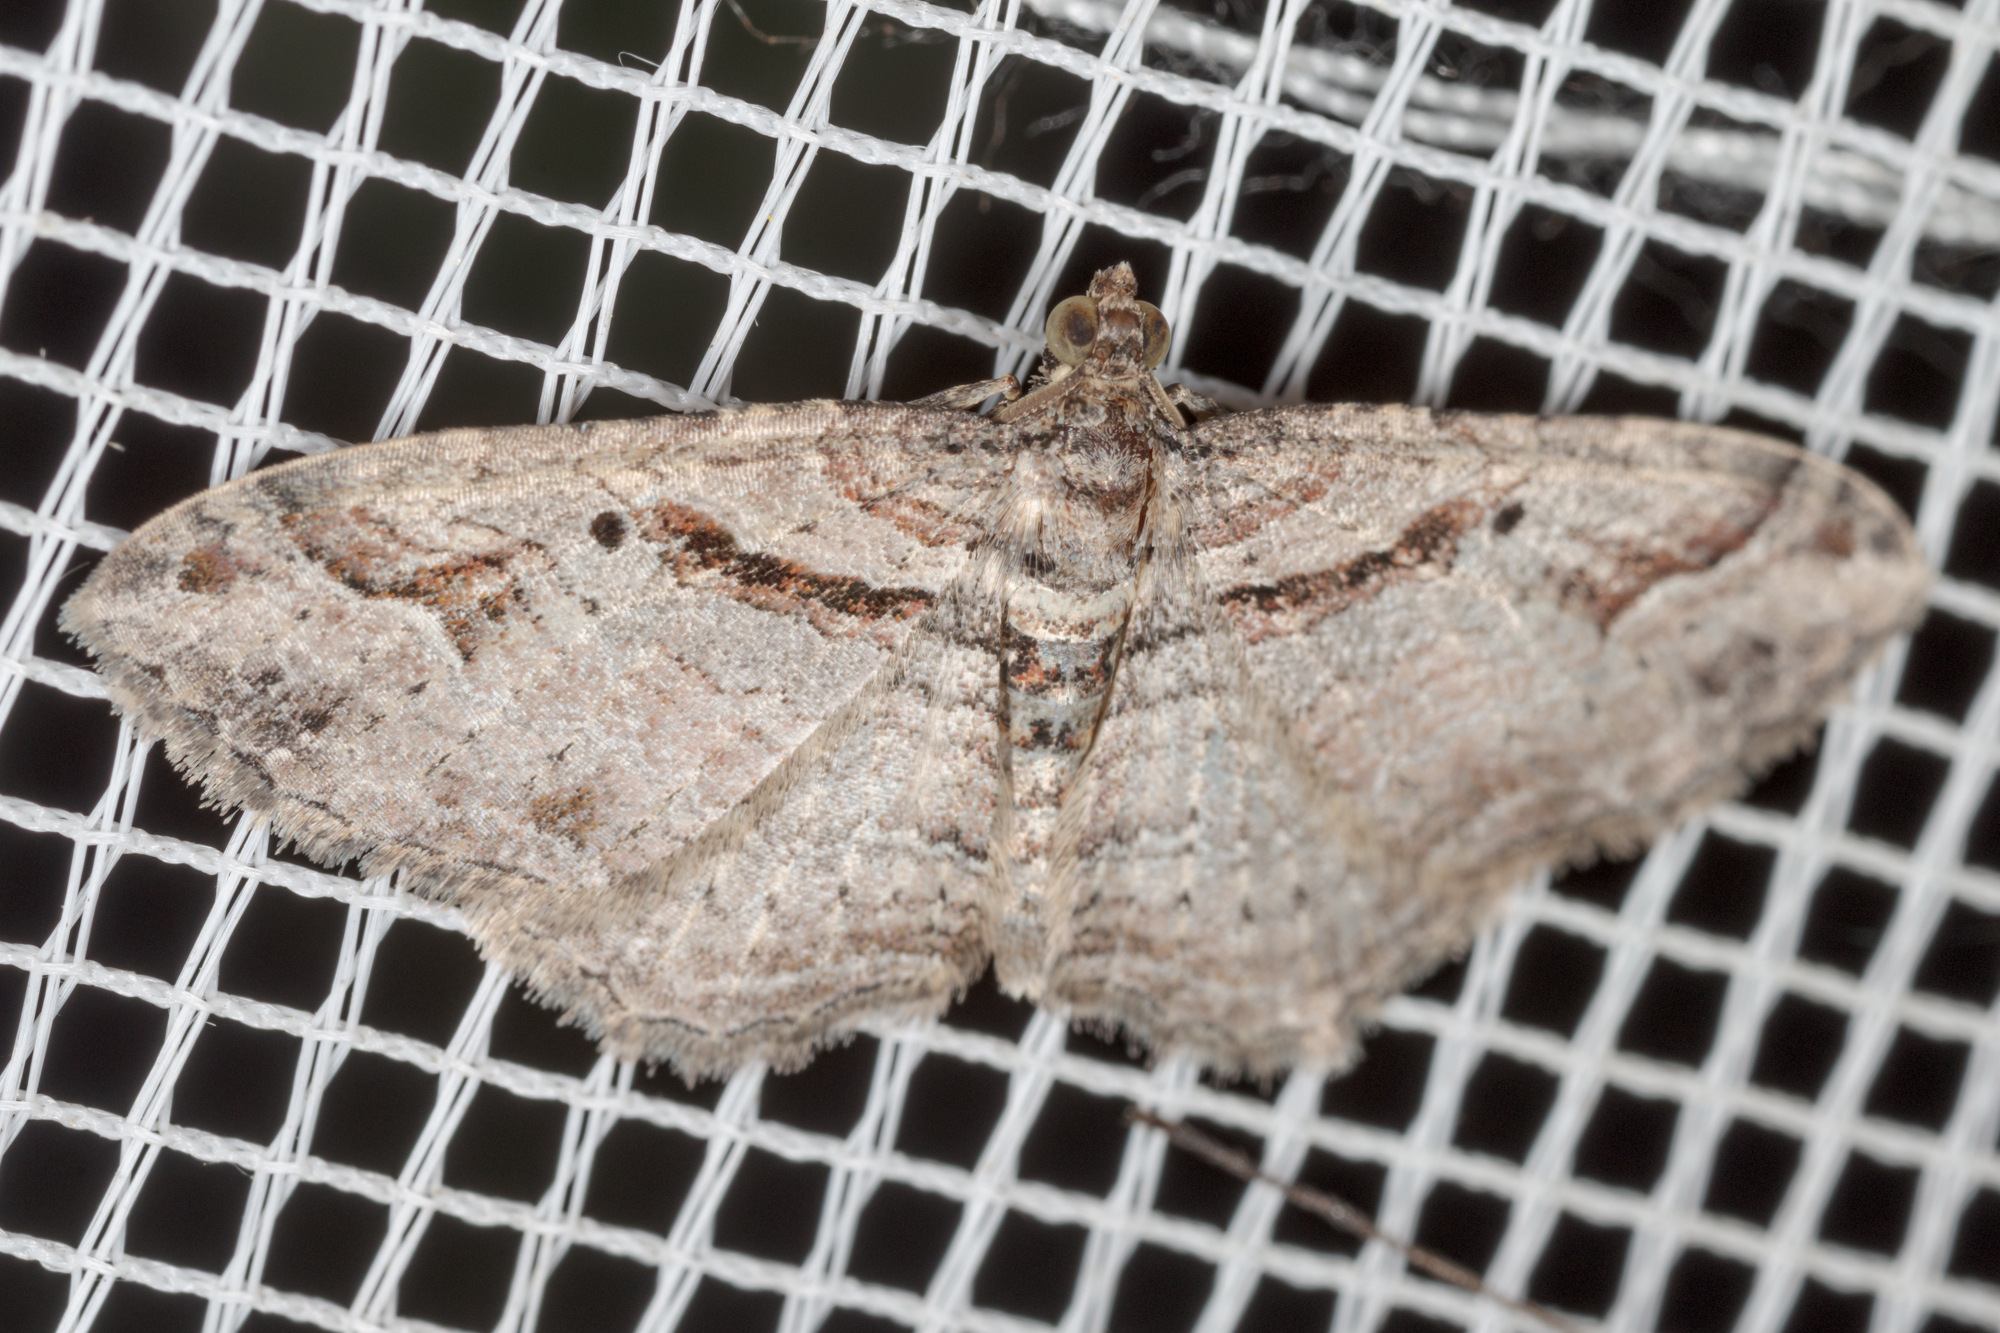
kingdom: Animalia
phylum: Arthropoda
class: Insecta
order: Lepidoptera
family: Geometridae
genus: Costaconvexa
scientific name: Costaconvexa centrostrigaria
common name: Bent-line carpet
